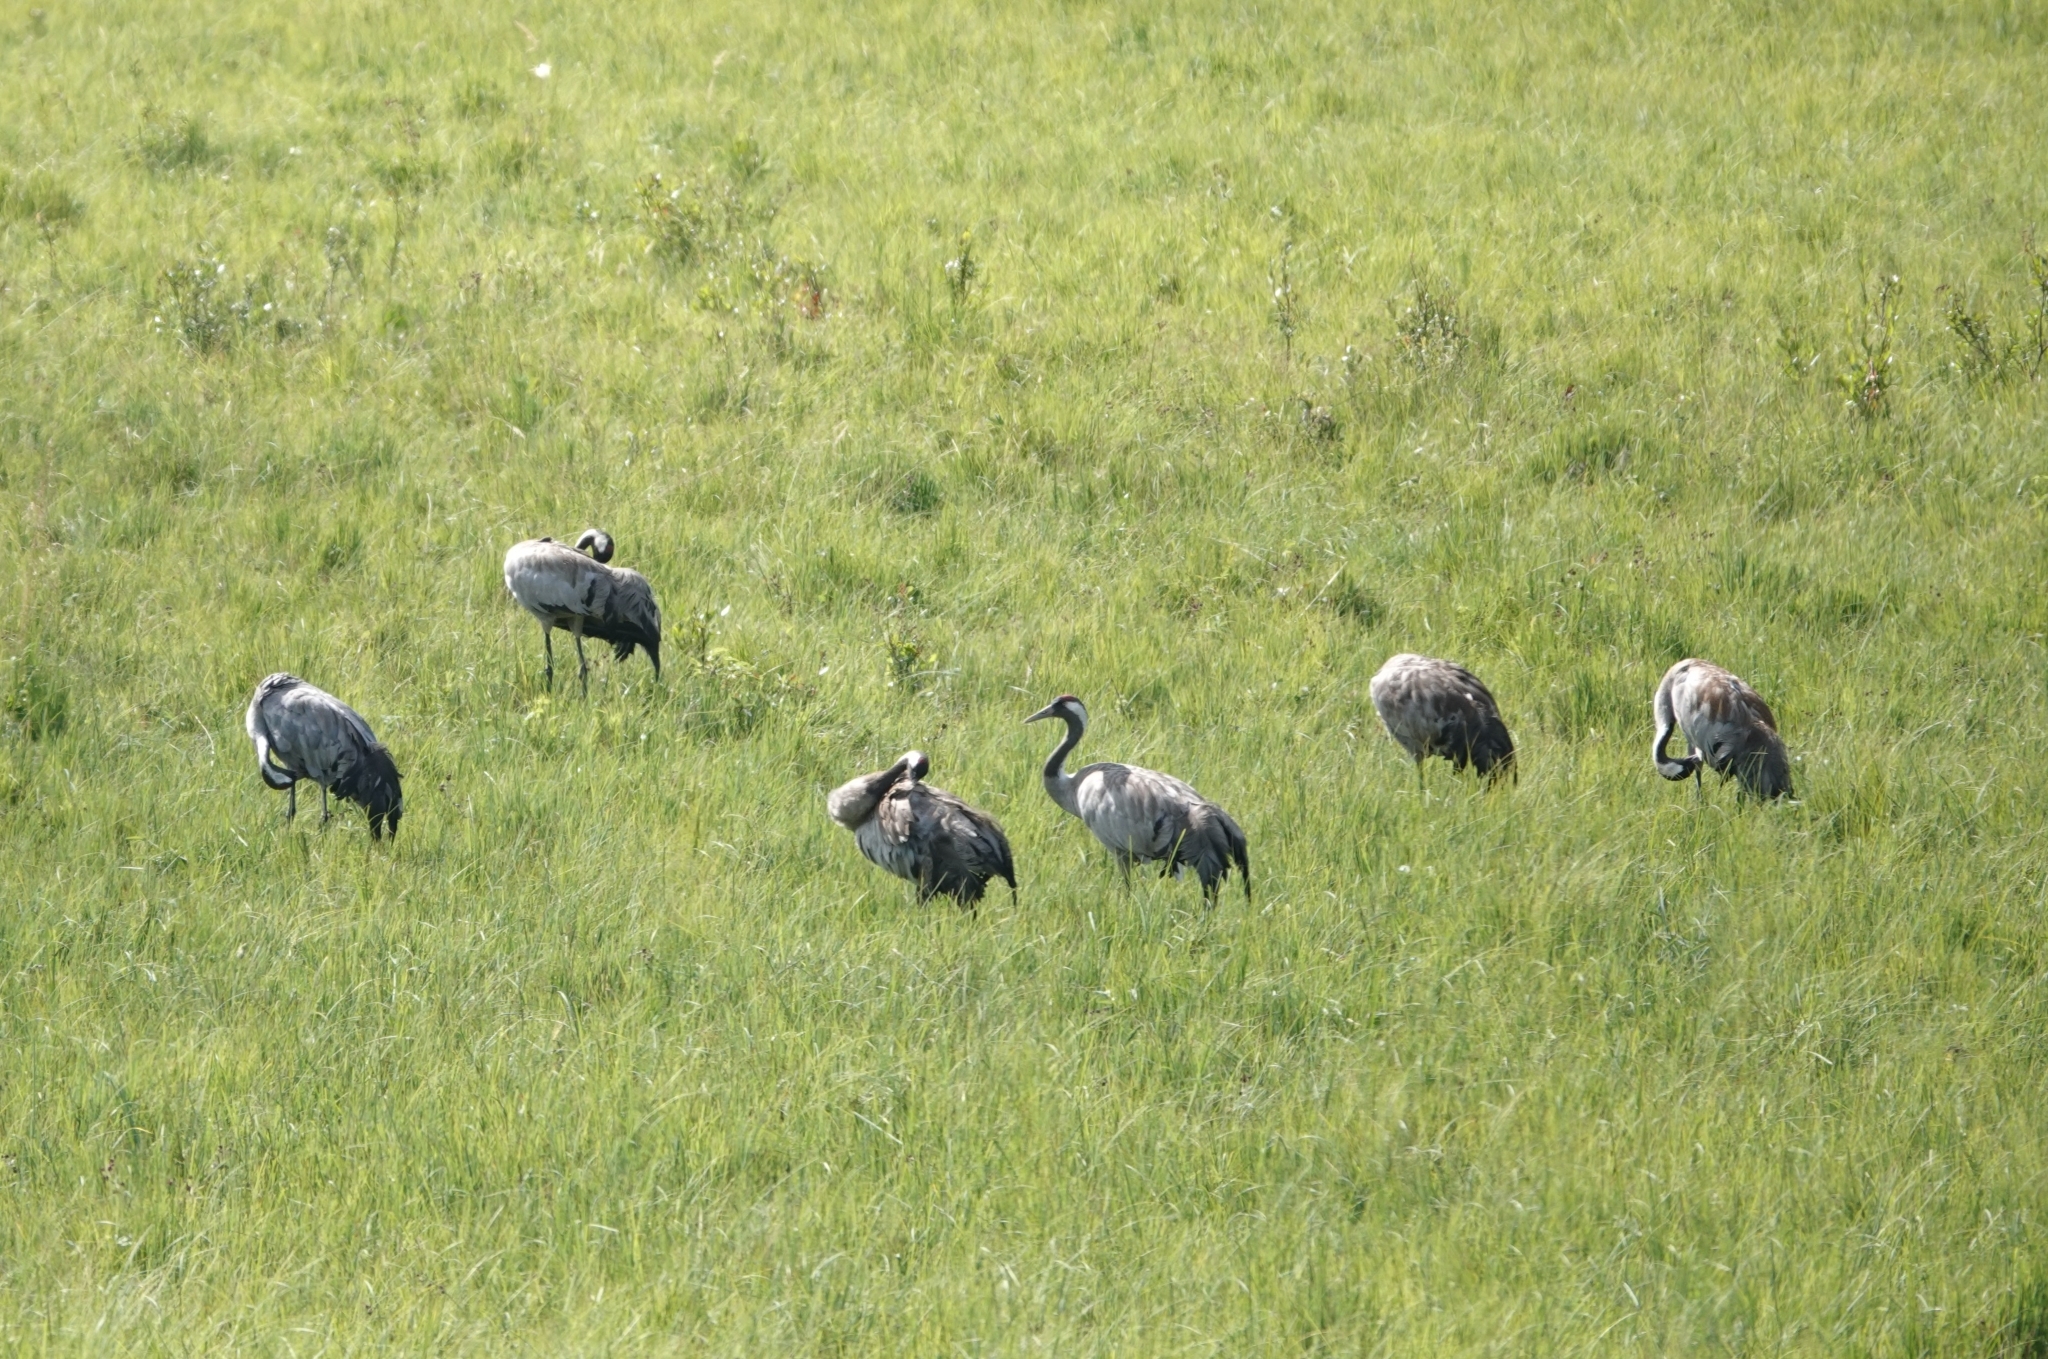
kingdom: Animalia
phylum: Chordata
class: Aves
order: Gruiformes
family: Gruidae
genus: Grus
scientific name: Grus grus
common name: Common crane
